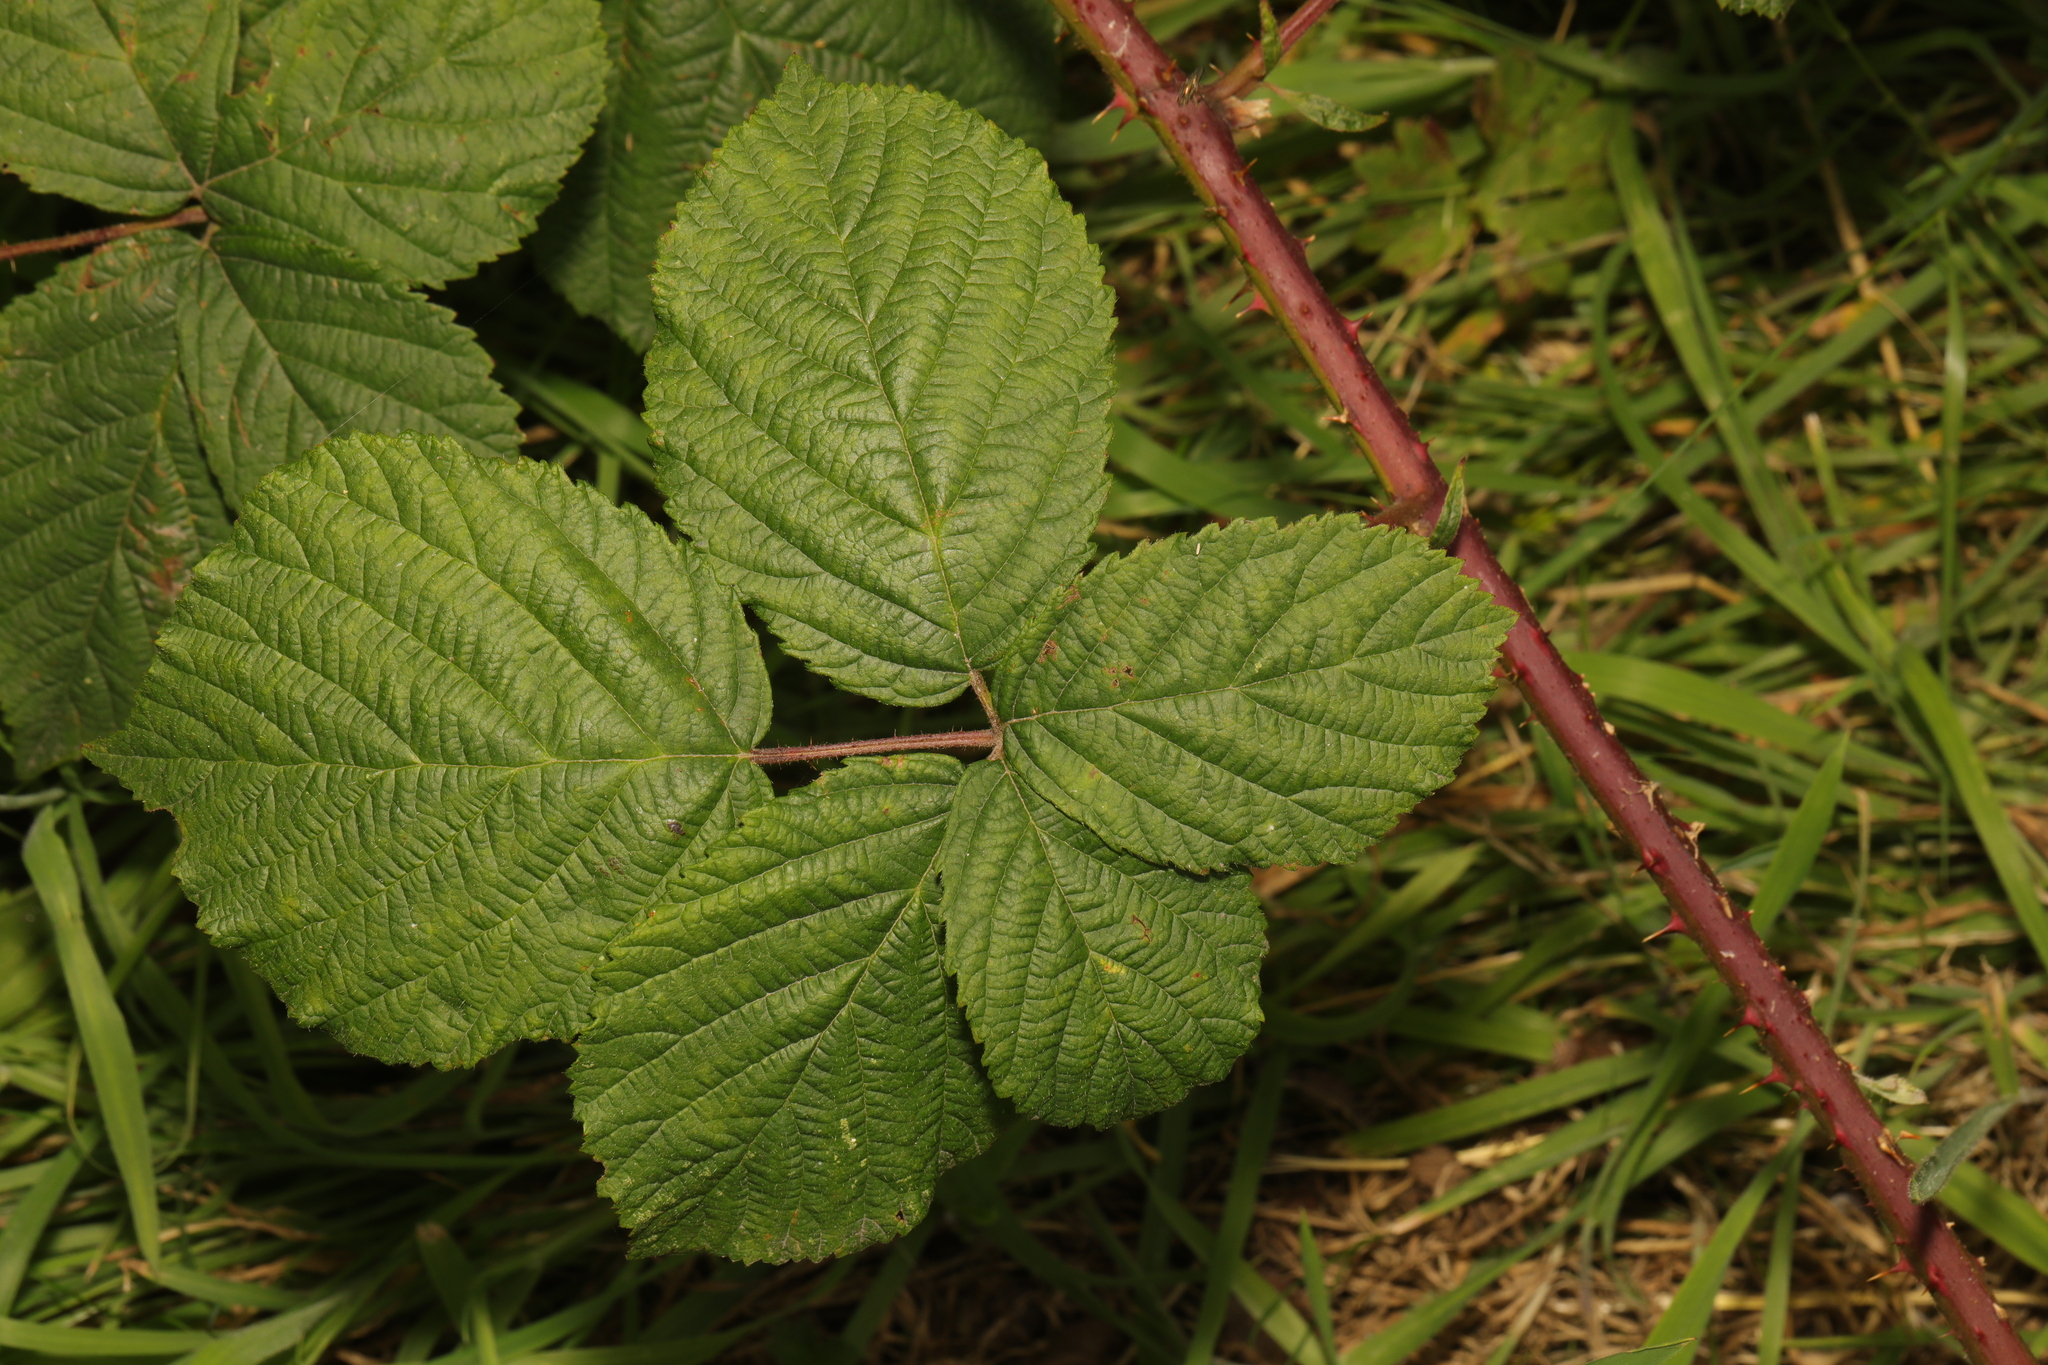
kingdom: Plantae
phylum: Tracheophyta
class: Magnoliopsida
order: Rosales
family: Rosaceae
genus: Rubus
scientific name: Rubus fruticosus
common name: Blackberry, bramble
